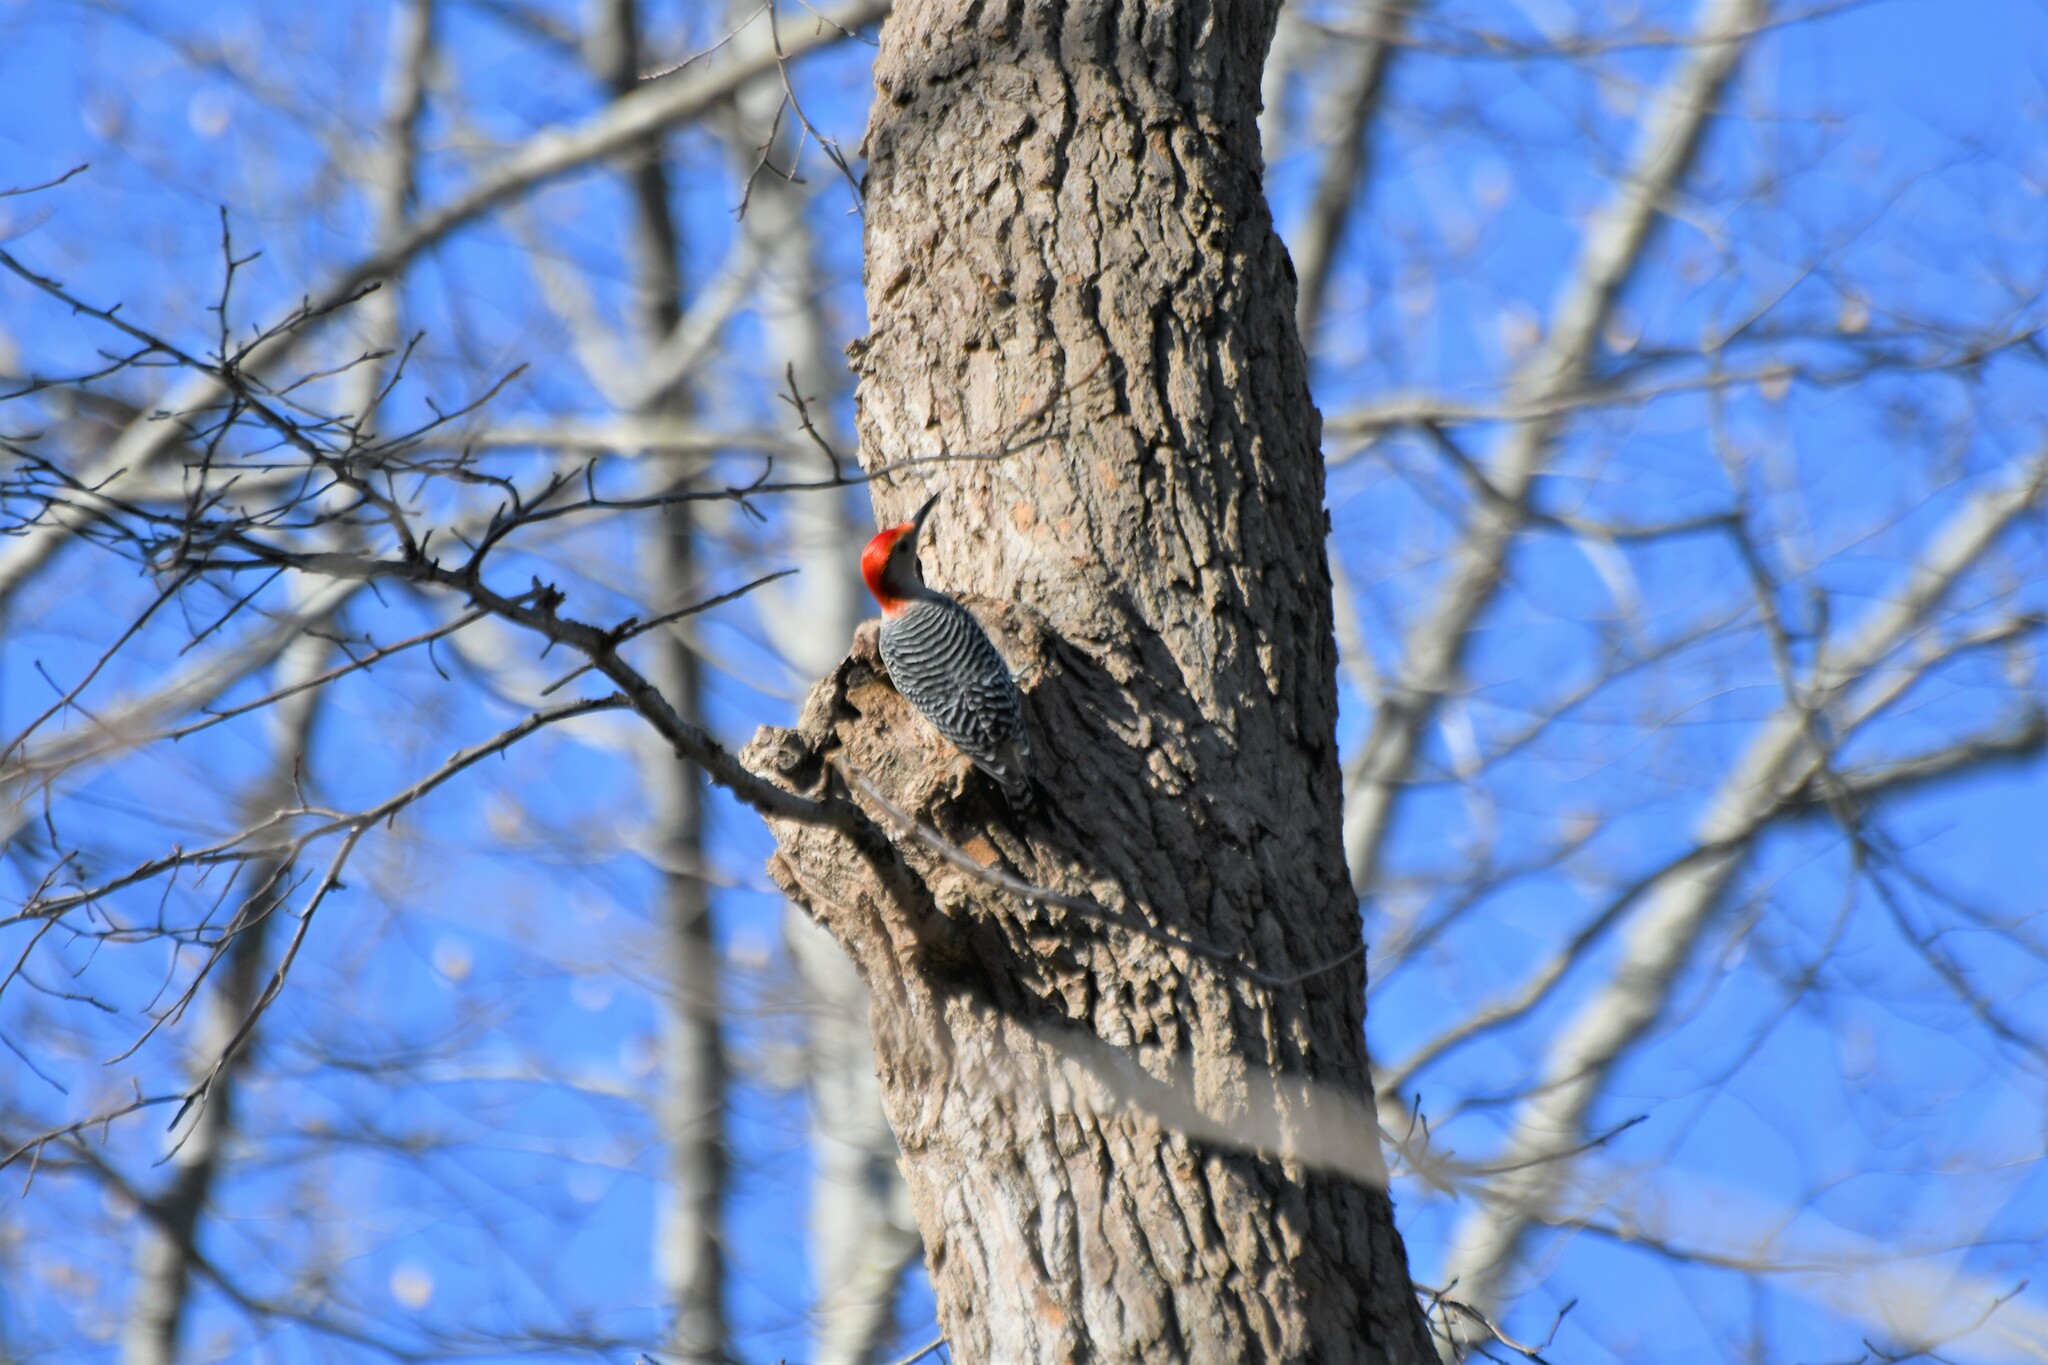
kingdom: Animalia
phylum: Chordata
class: Aves
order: Piciformes
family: Picidae
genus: Melanerpes
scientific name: Melanerpes carolinus
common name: Red-bellied woodpecker
